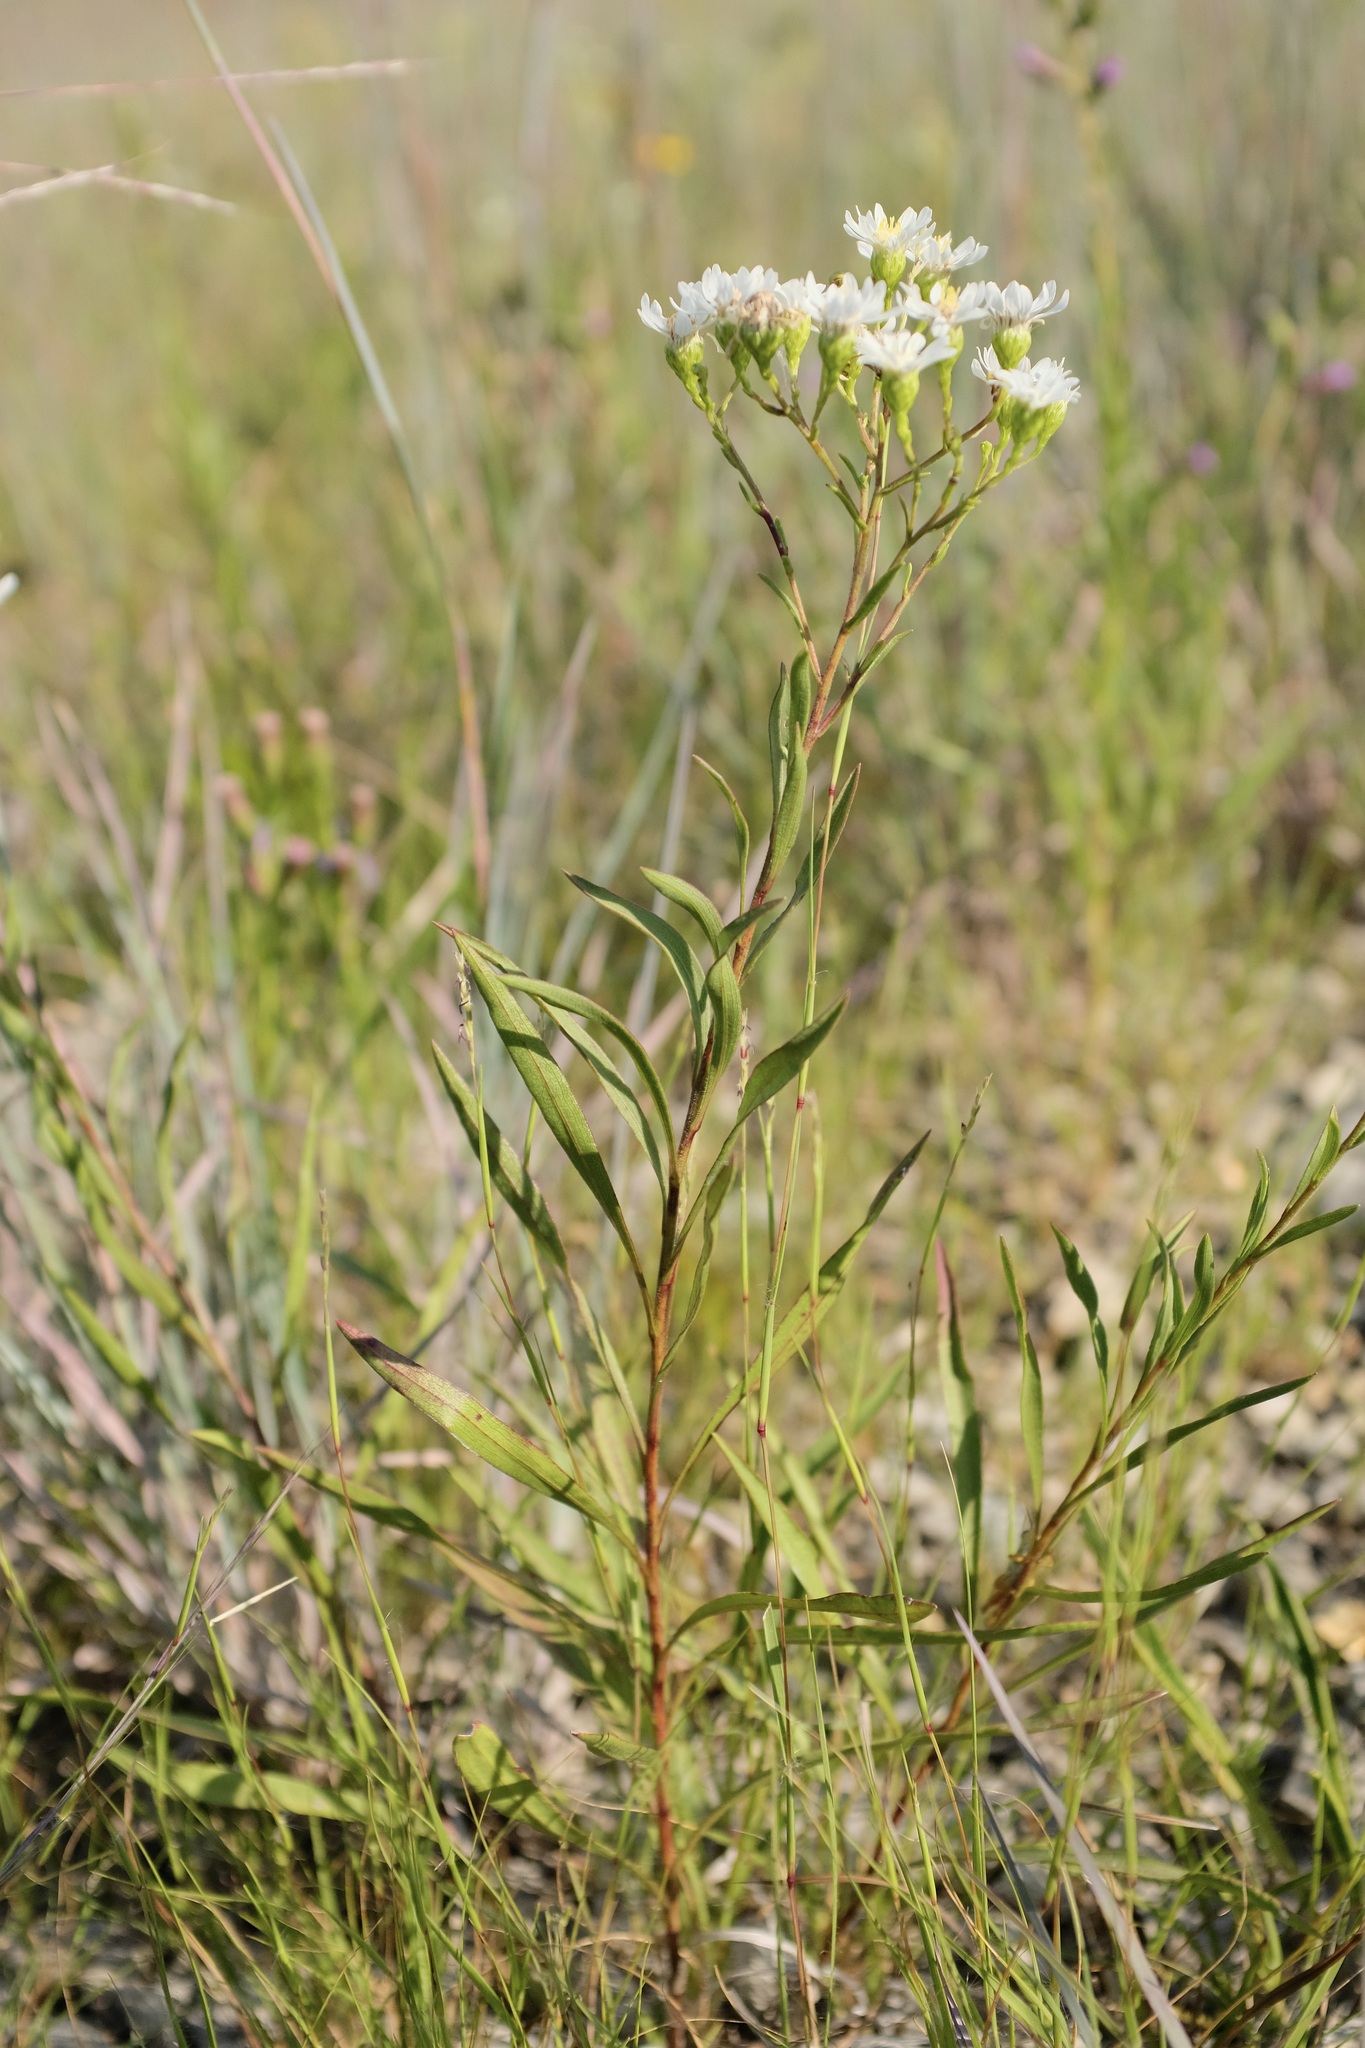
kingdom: Plantae
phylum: Tracheophyta
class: Magnoliopsida
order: Asterales
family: Asteraceae
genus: Solidago
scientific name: Solidago ptarmicoides
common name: White flat-top goldenrod
